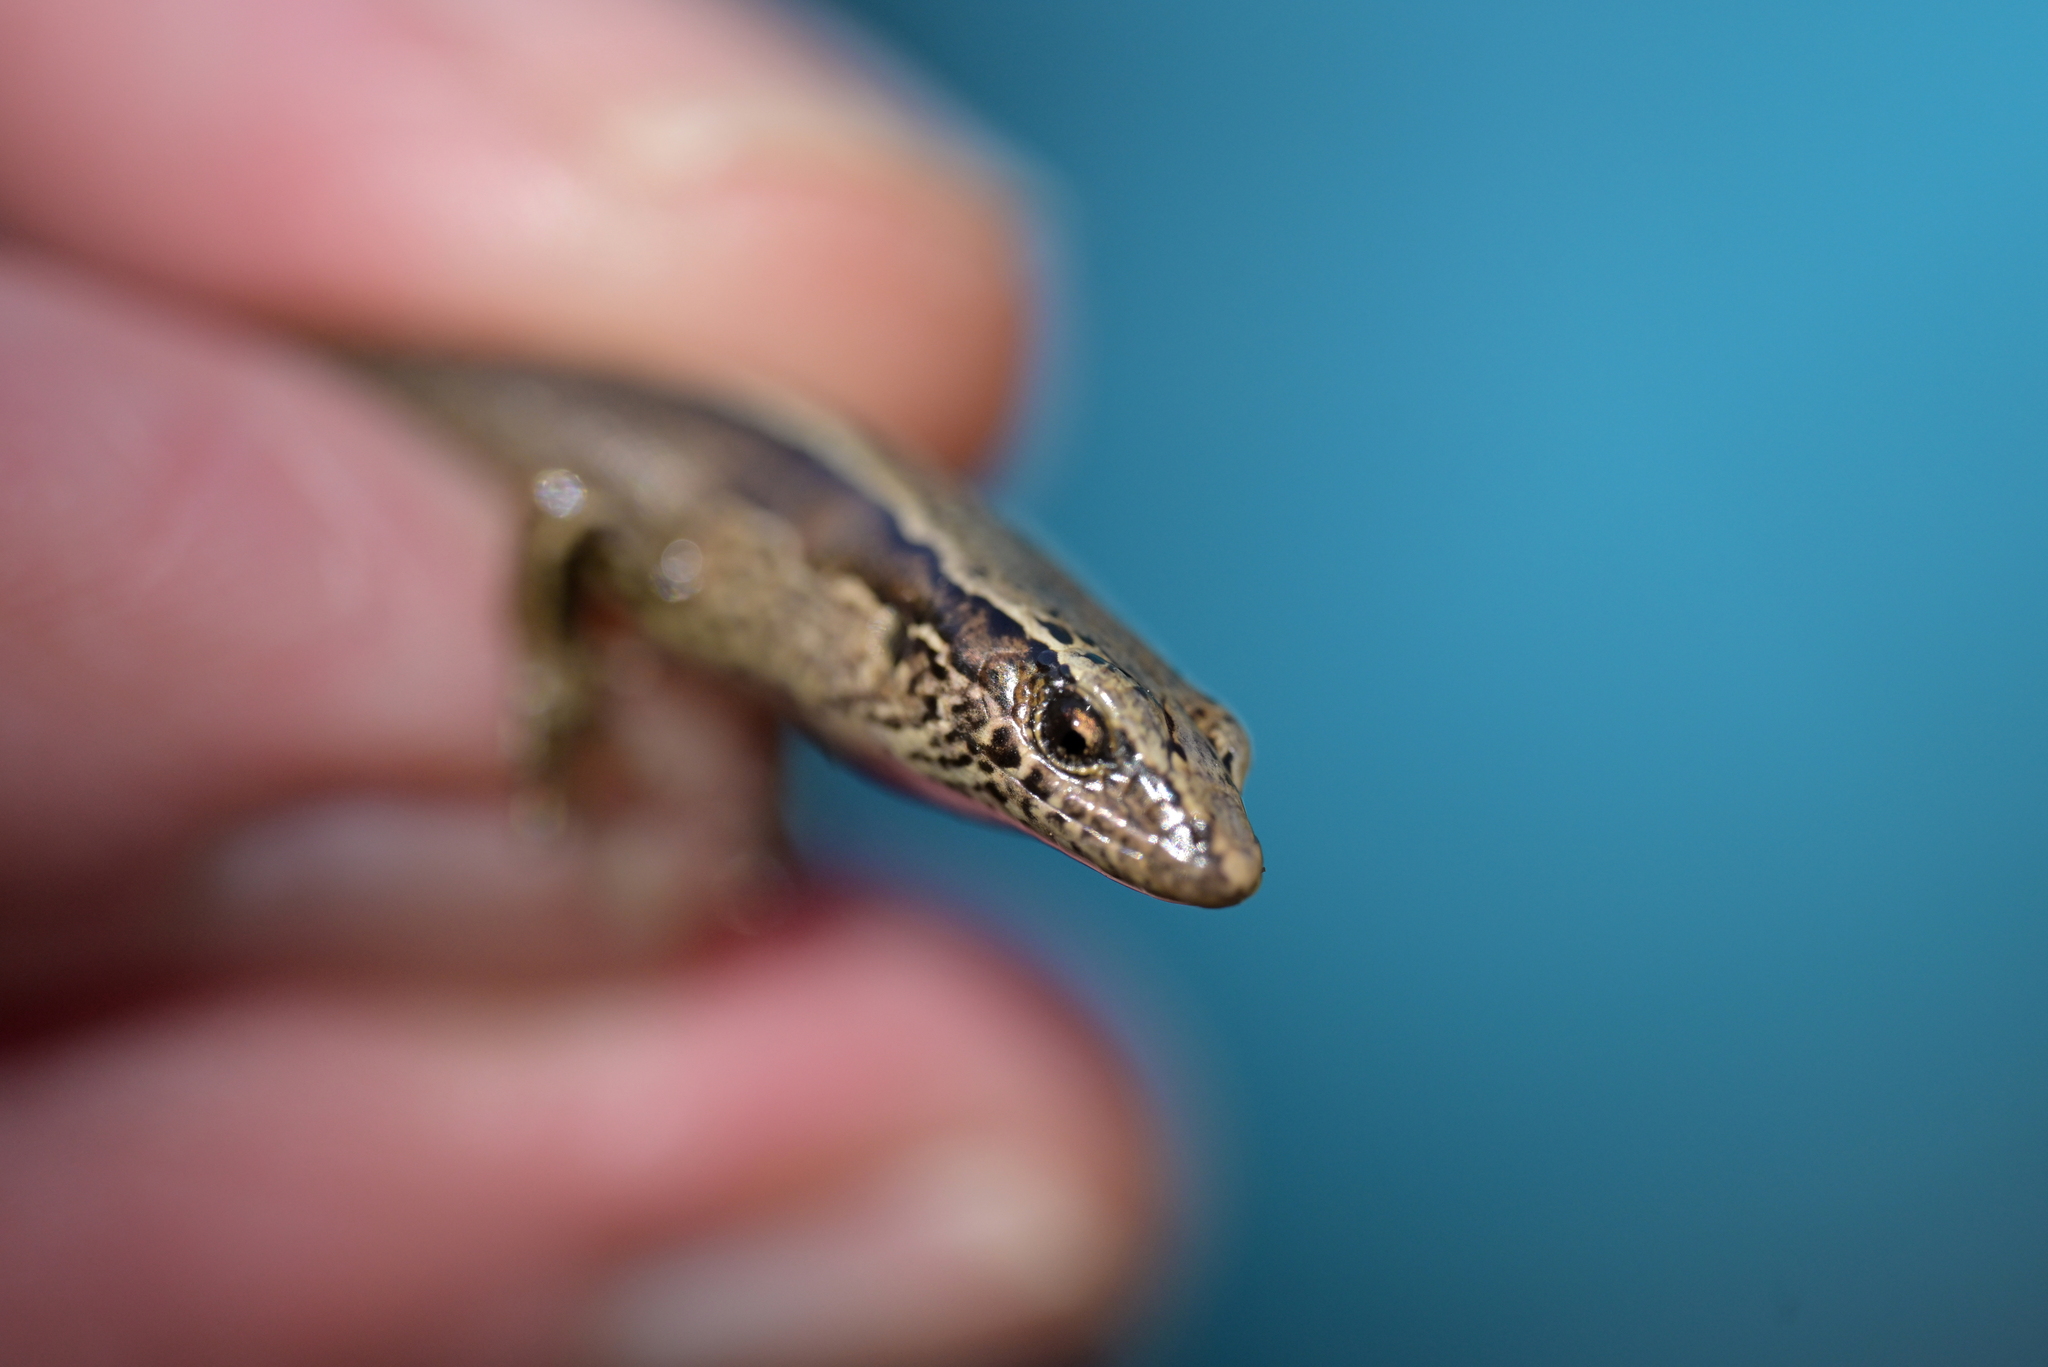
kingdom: Animalia
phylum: Chordata
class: Squamata
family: Scincidae
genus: Oligosoma
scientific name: Oligosoma zelandicum
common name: Brown skink
